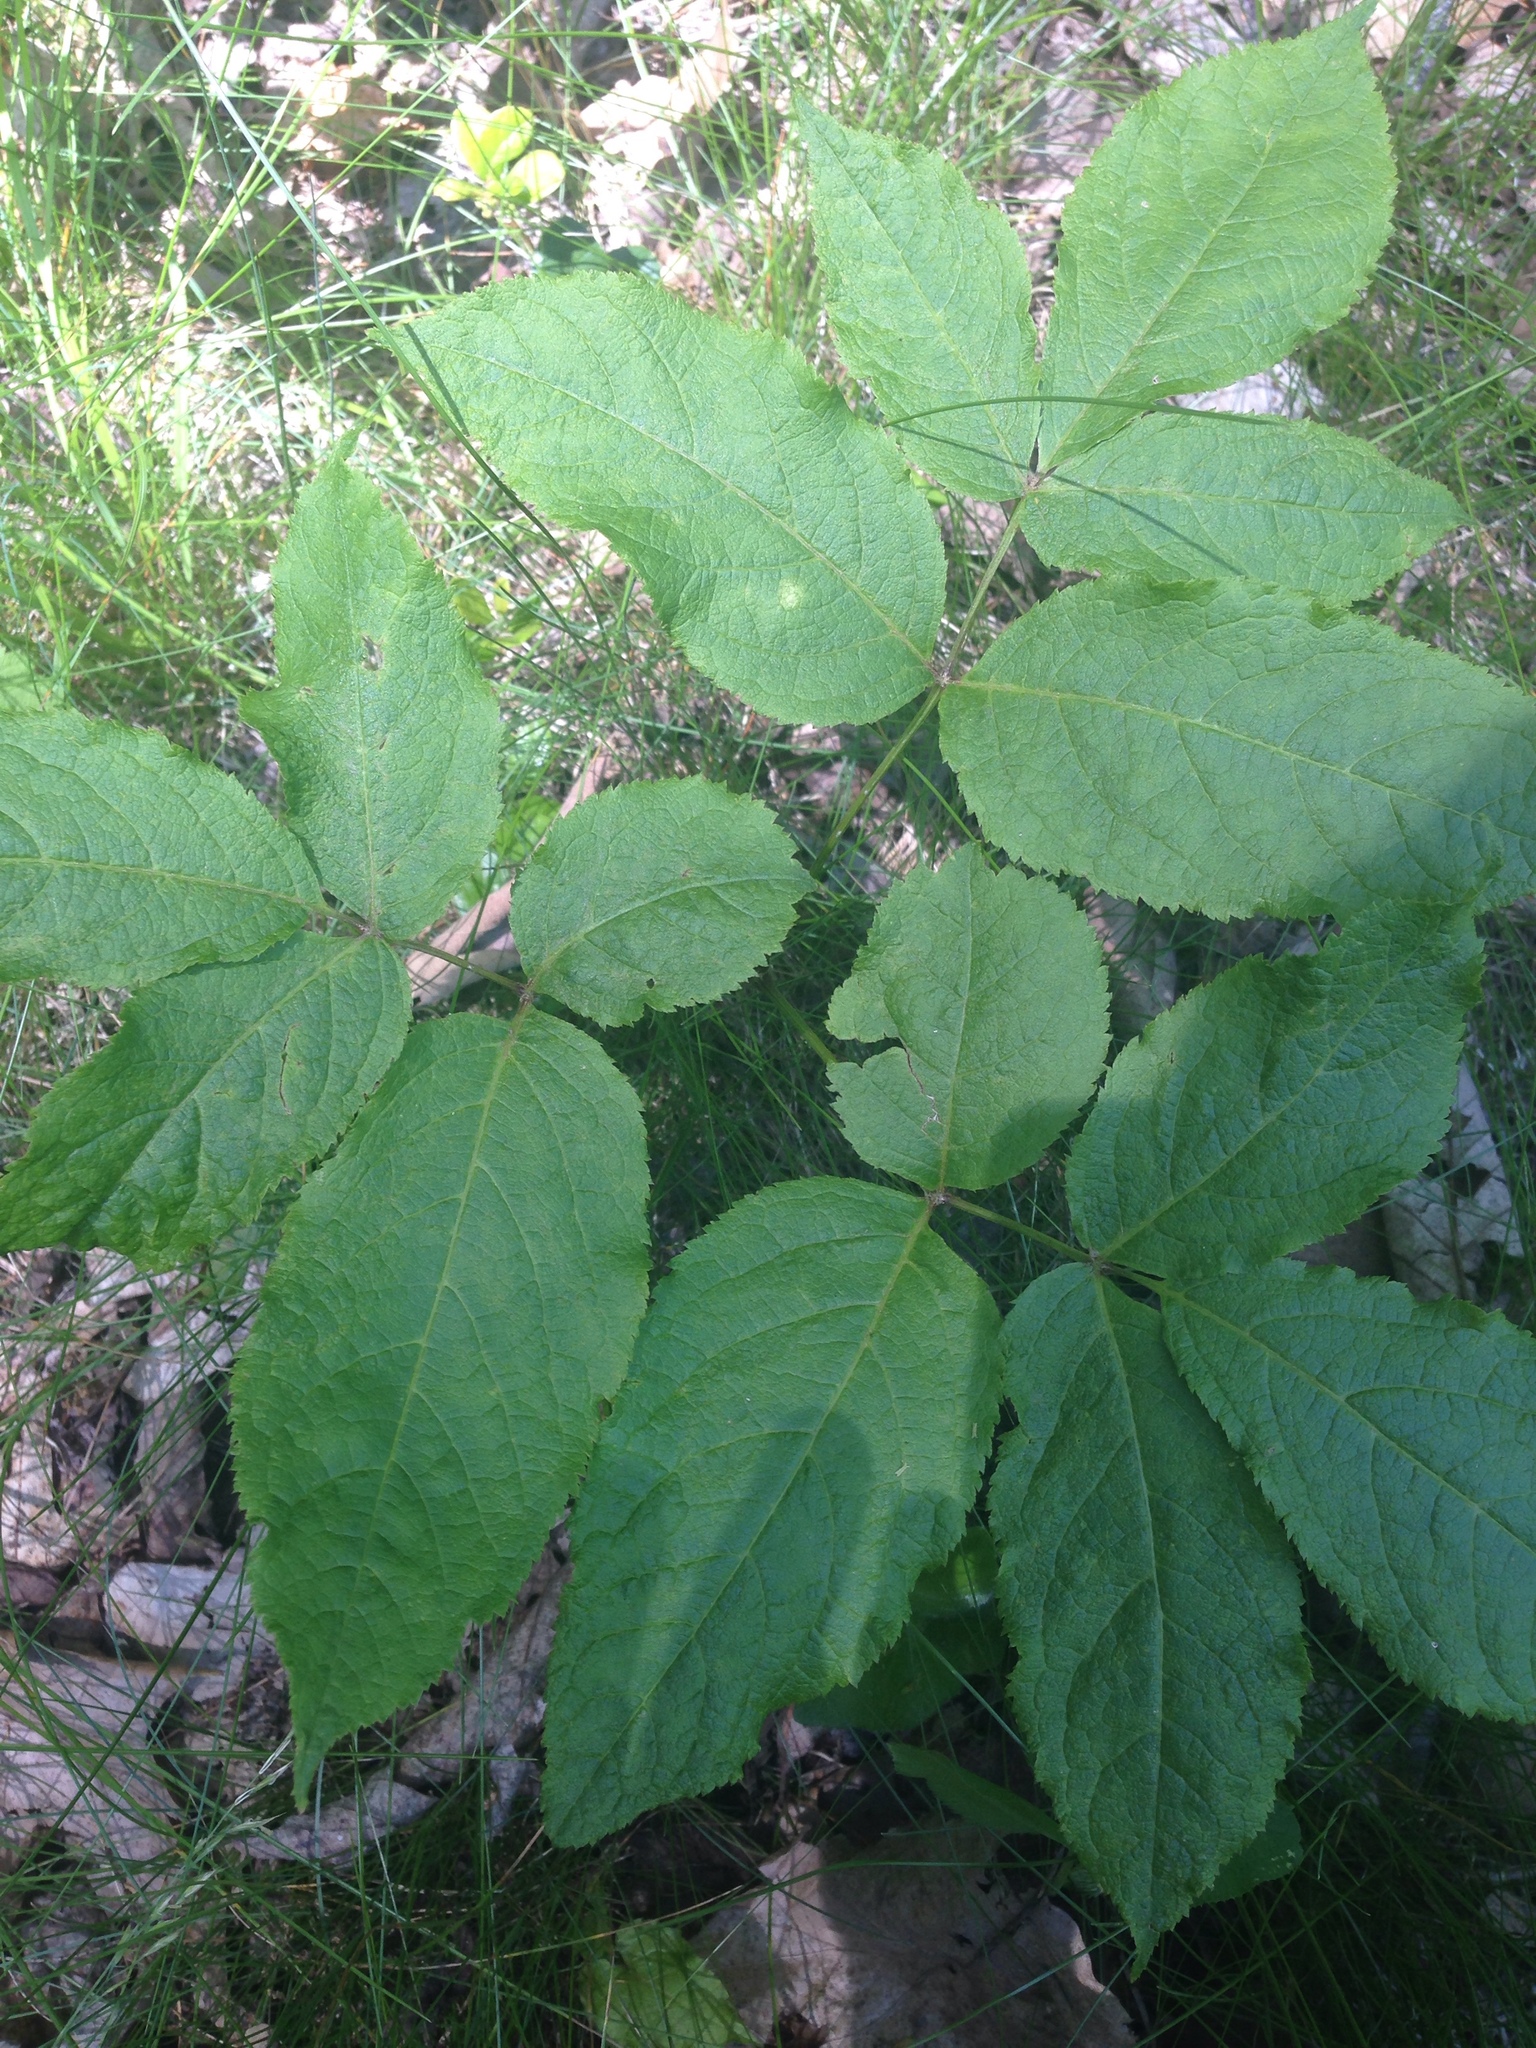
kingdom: Plantae
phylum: Tracheophyta
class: Magnoliopsida
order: Apiales
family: Araliaceae
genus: Aralia
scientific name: Aralia nudicaulis
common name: Wild sarsaparilla
